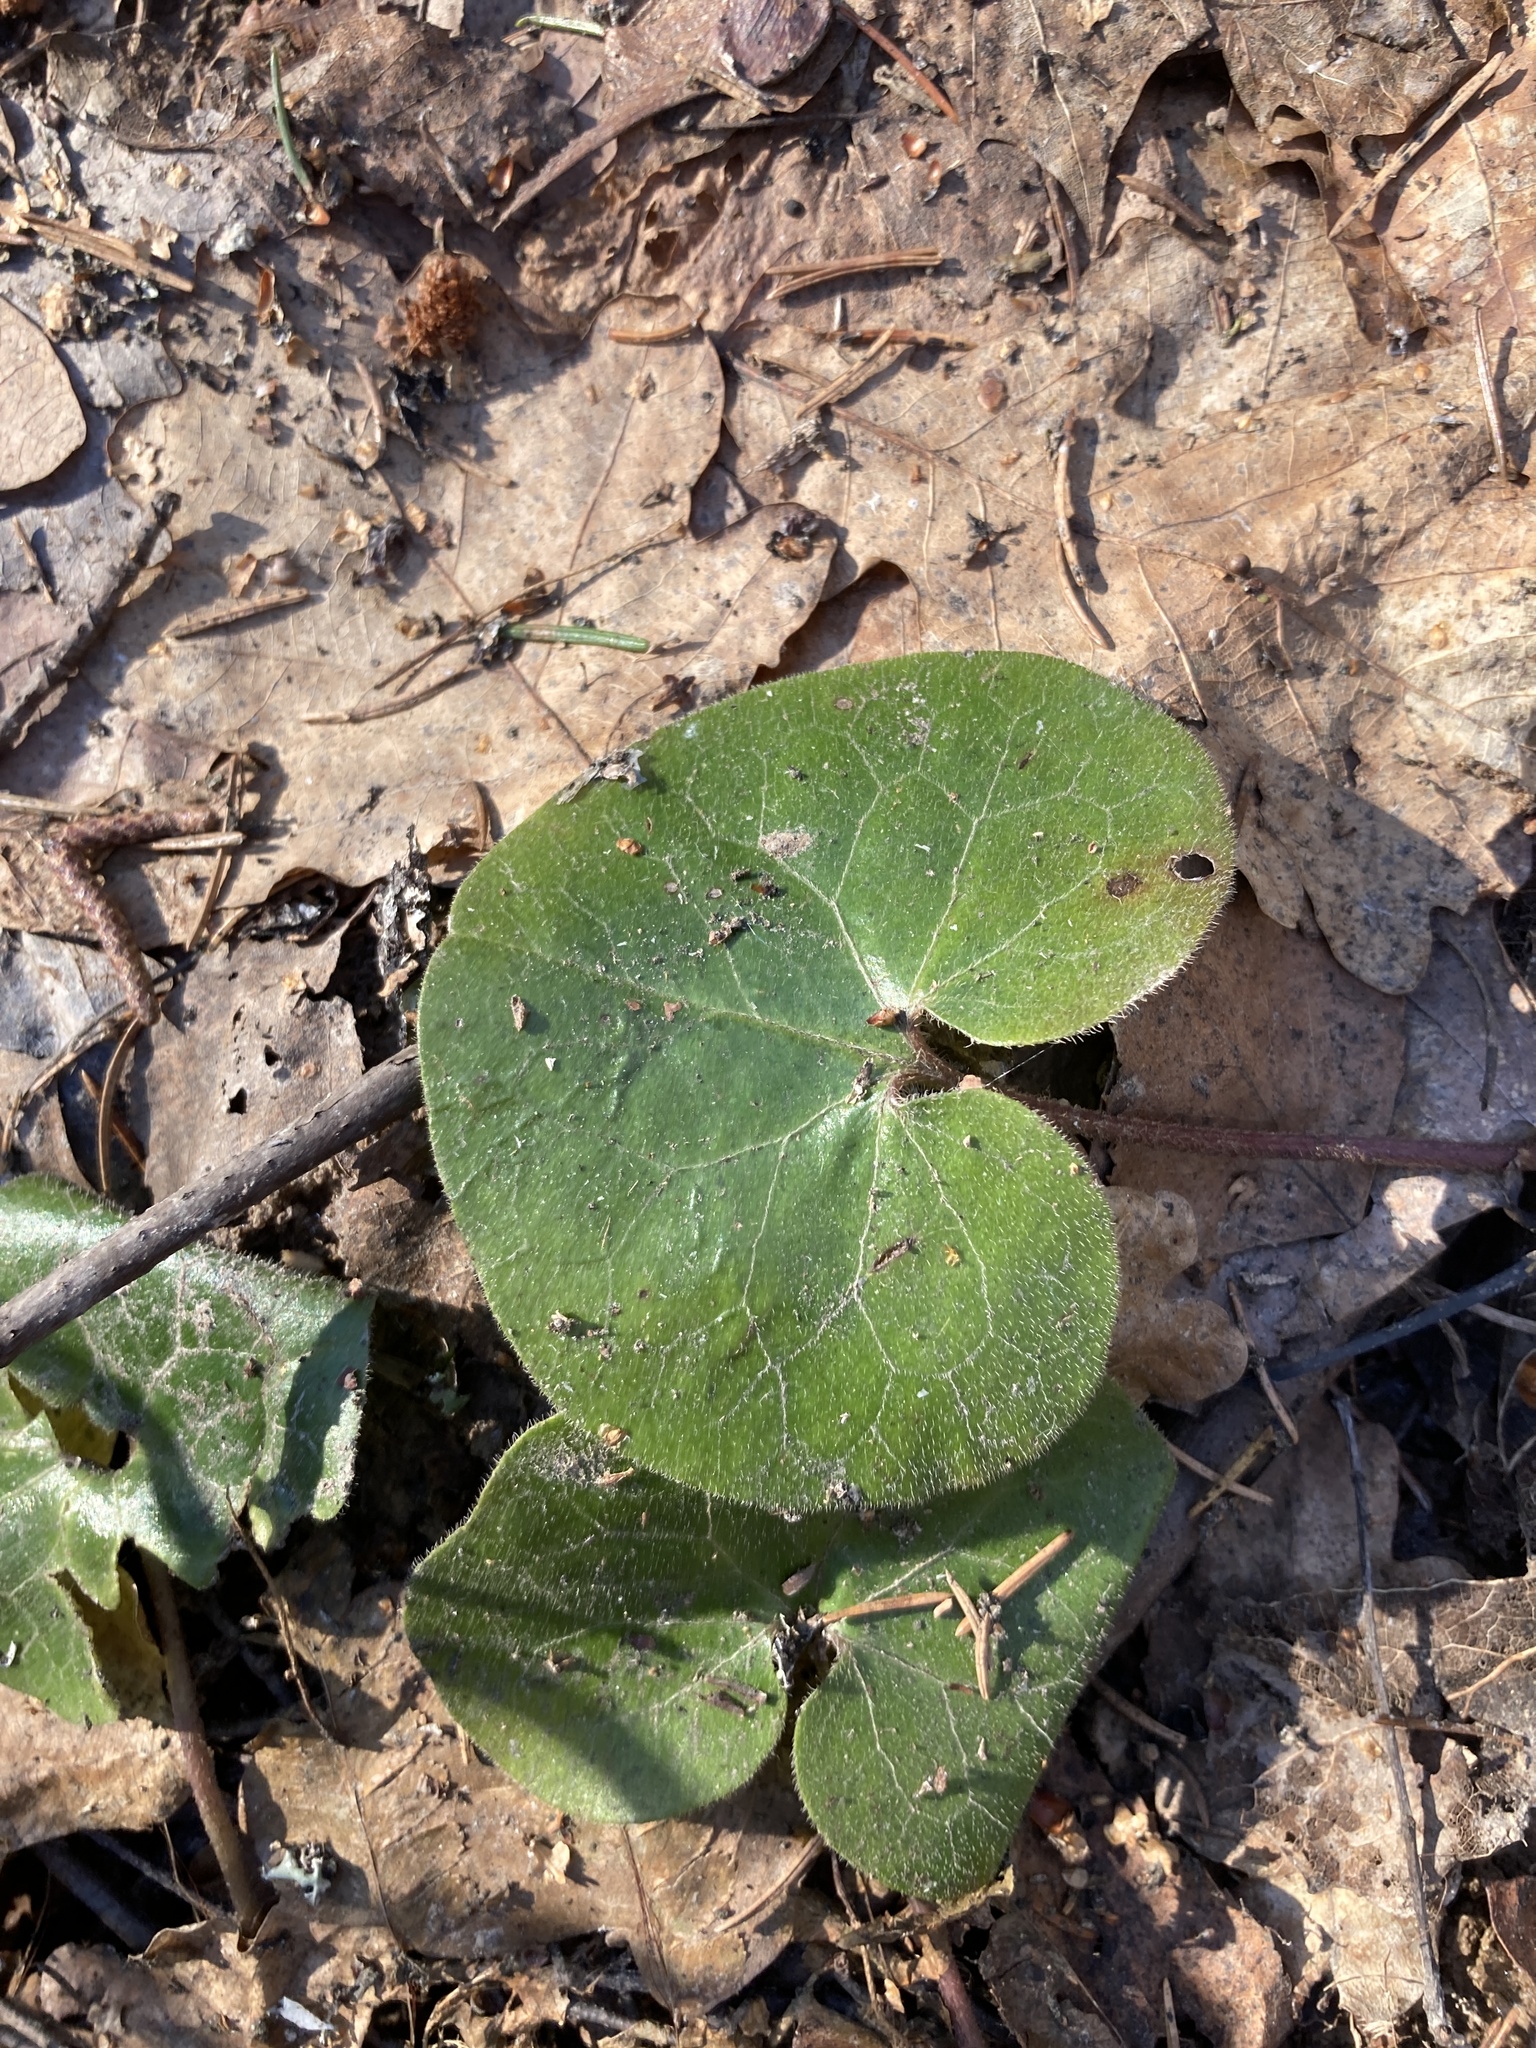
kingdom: Plantae
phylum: Tracheophyta
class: Magnoliopsida
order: Piperales
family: Aristolochiaceae
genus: Asarum
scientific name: Asarum europaeum
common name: Asarabacca
